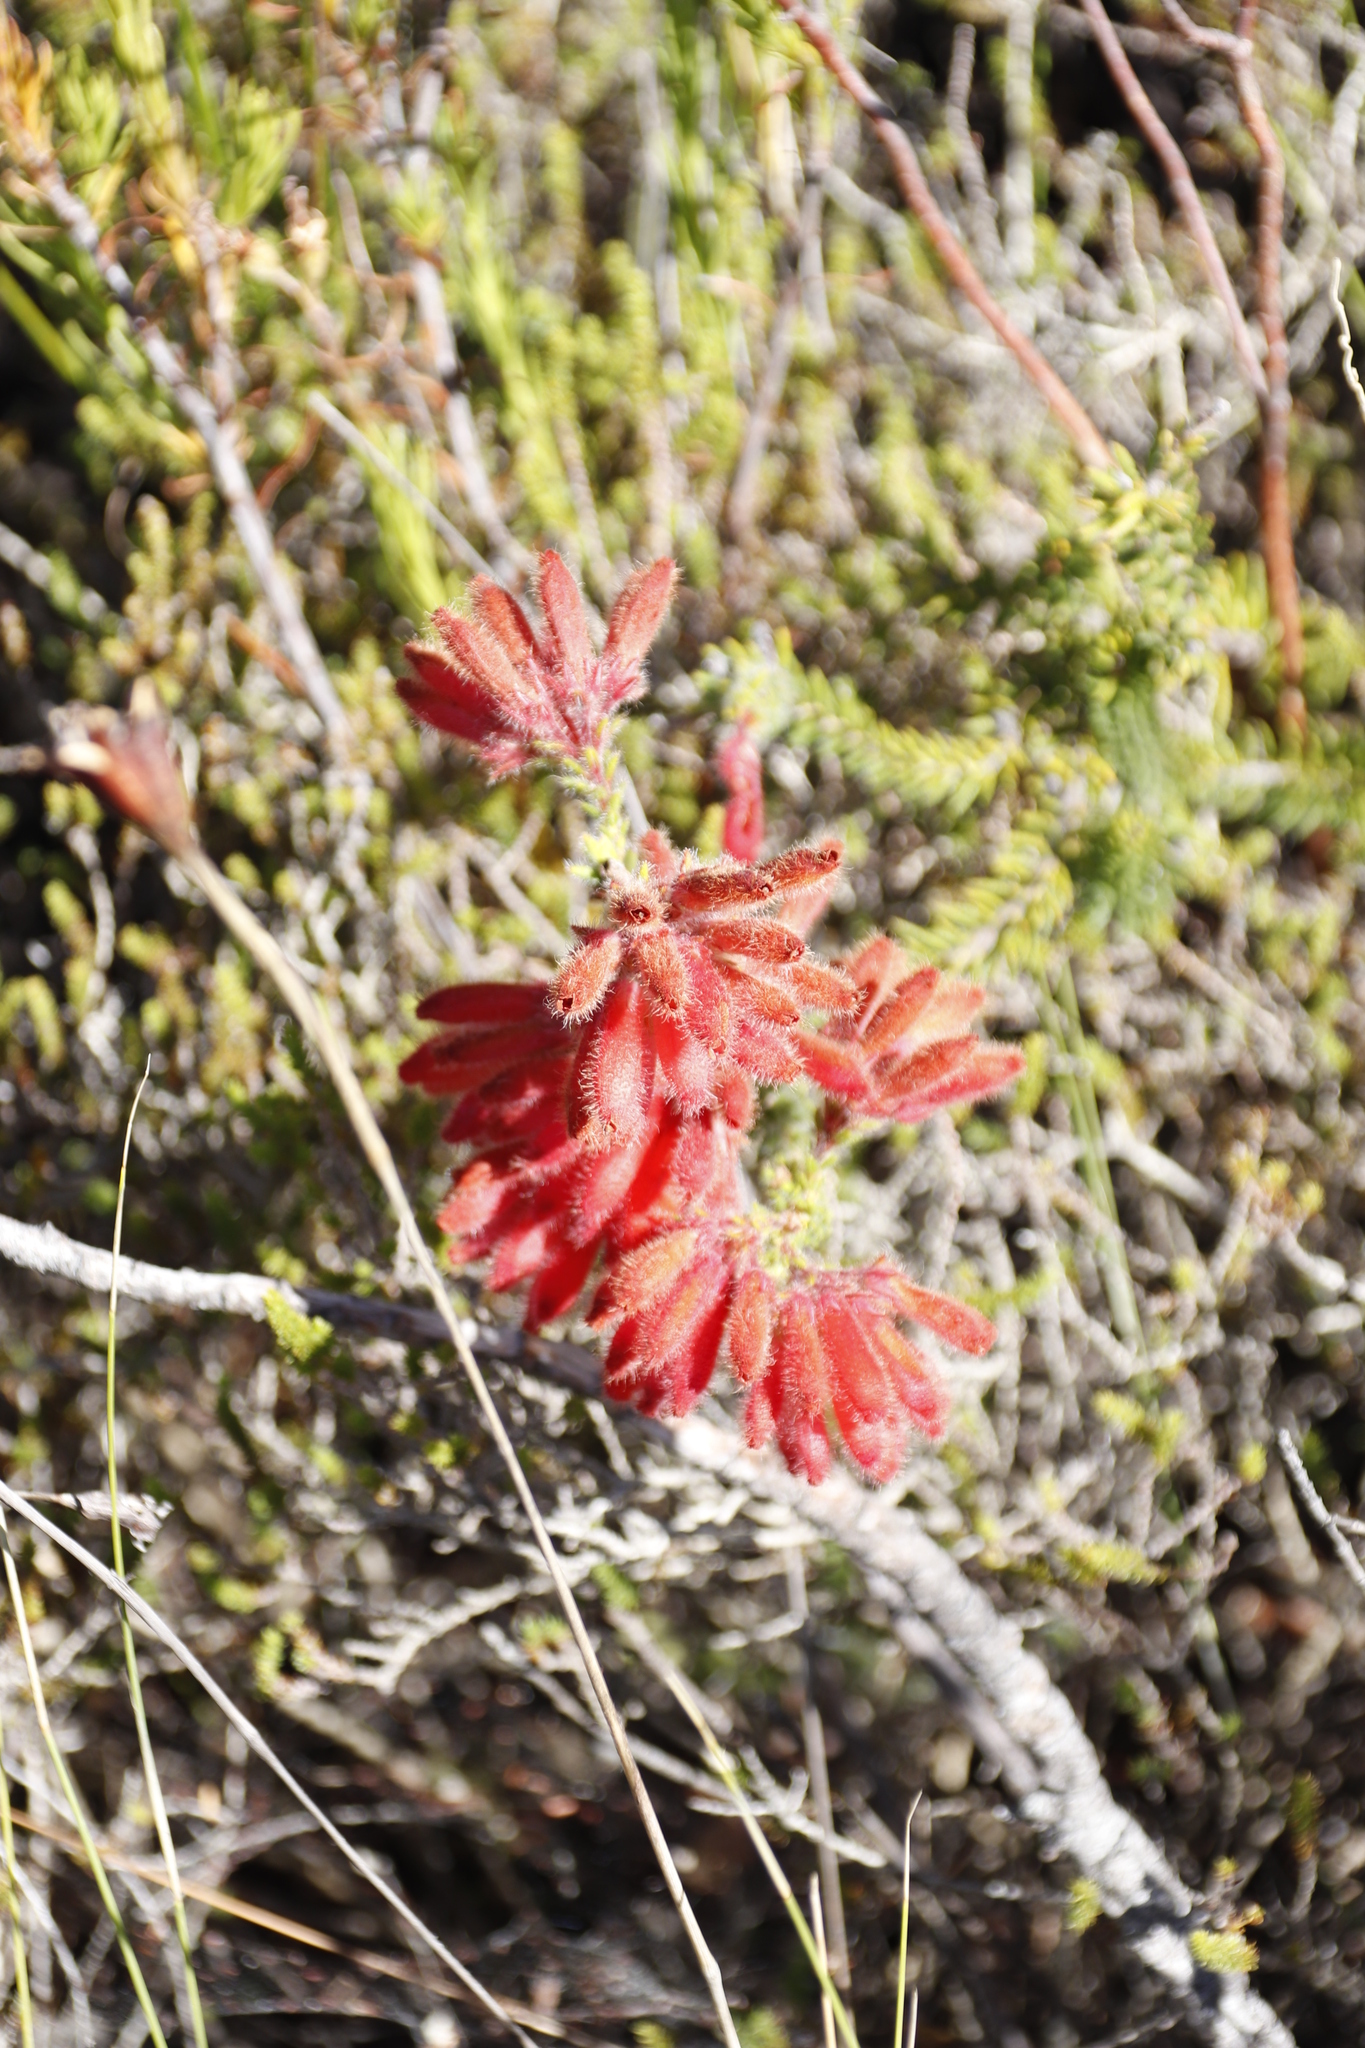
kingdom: Plantae
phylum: Tracheophyta
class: Magnoliopsida
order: Ericales
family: Ericaceae
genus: Erica
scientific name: Erica cerinthoides
